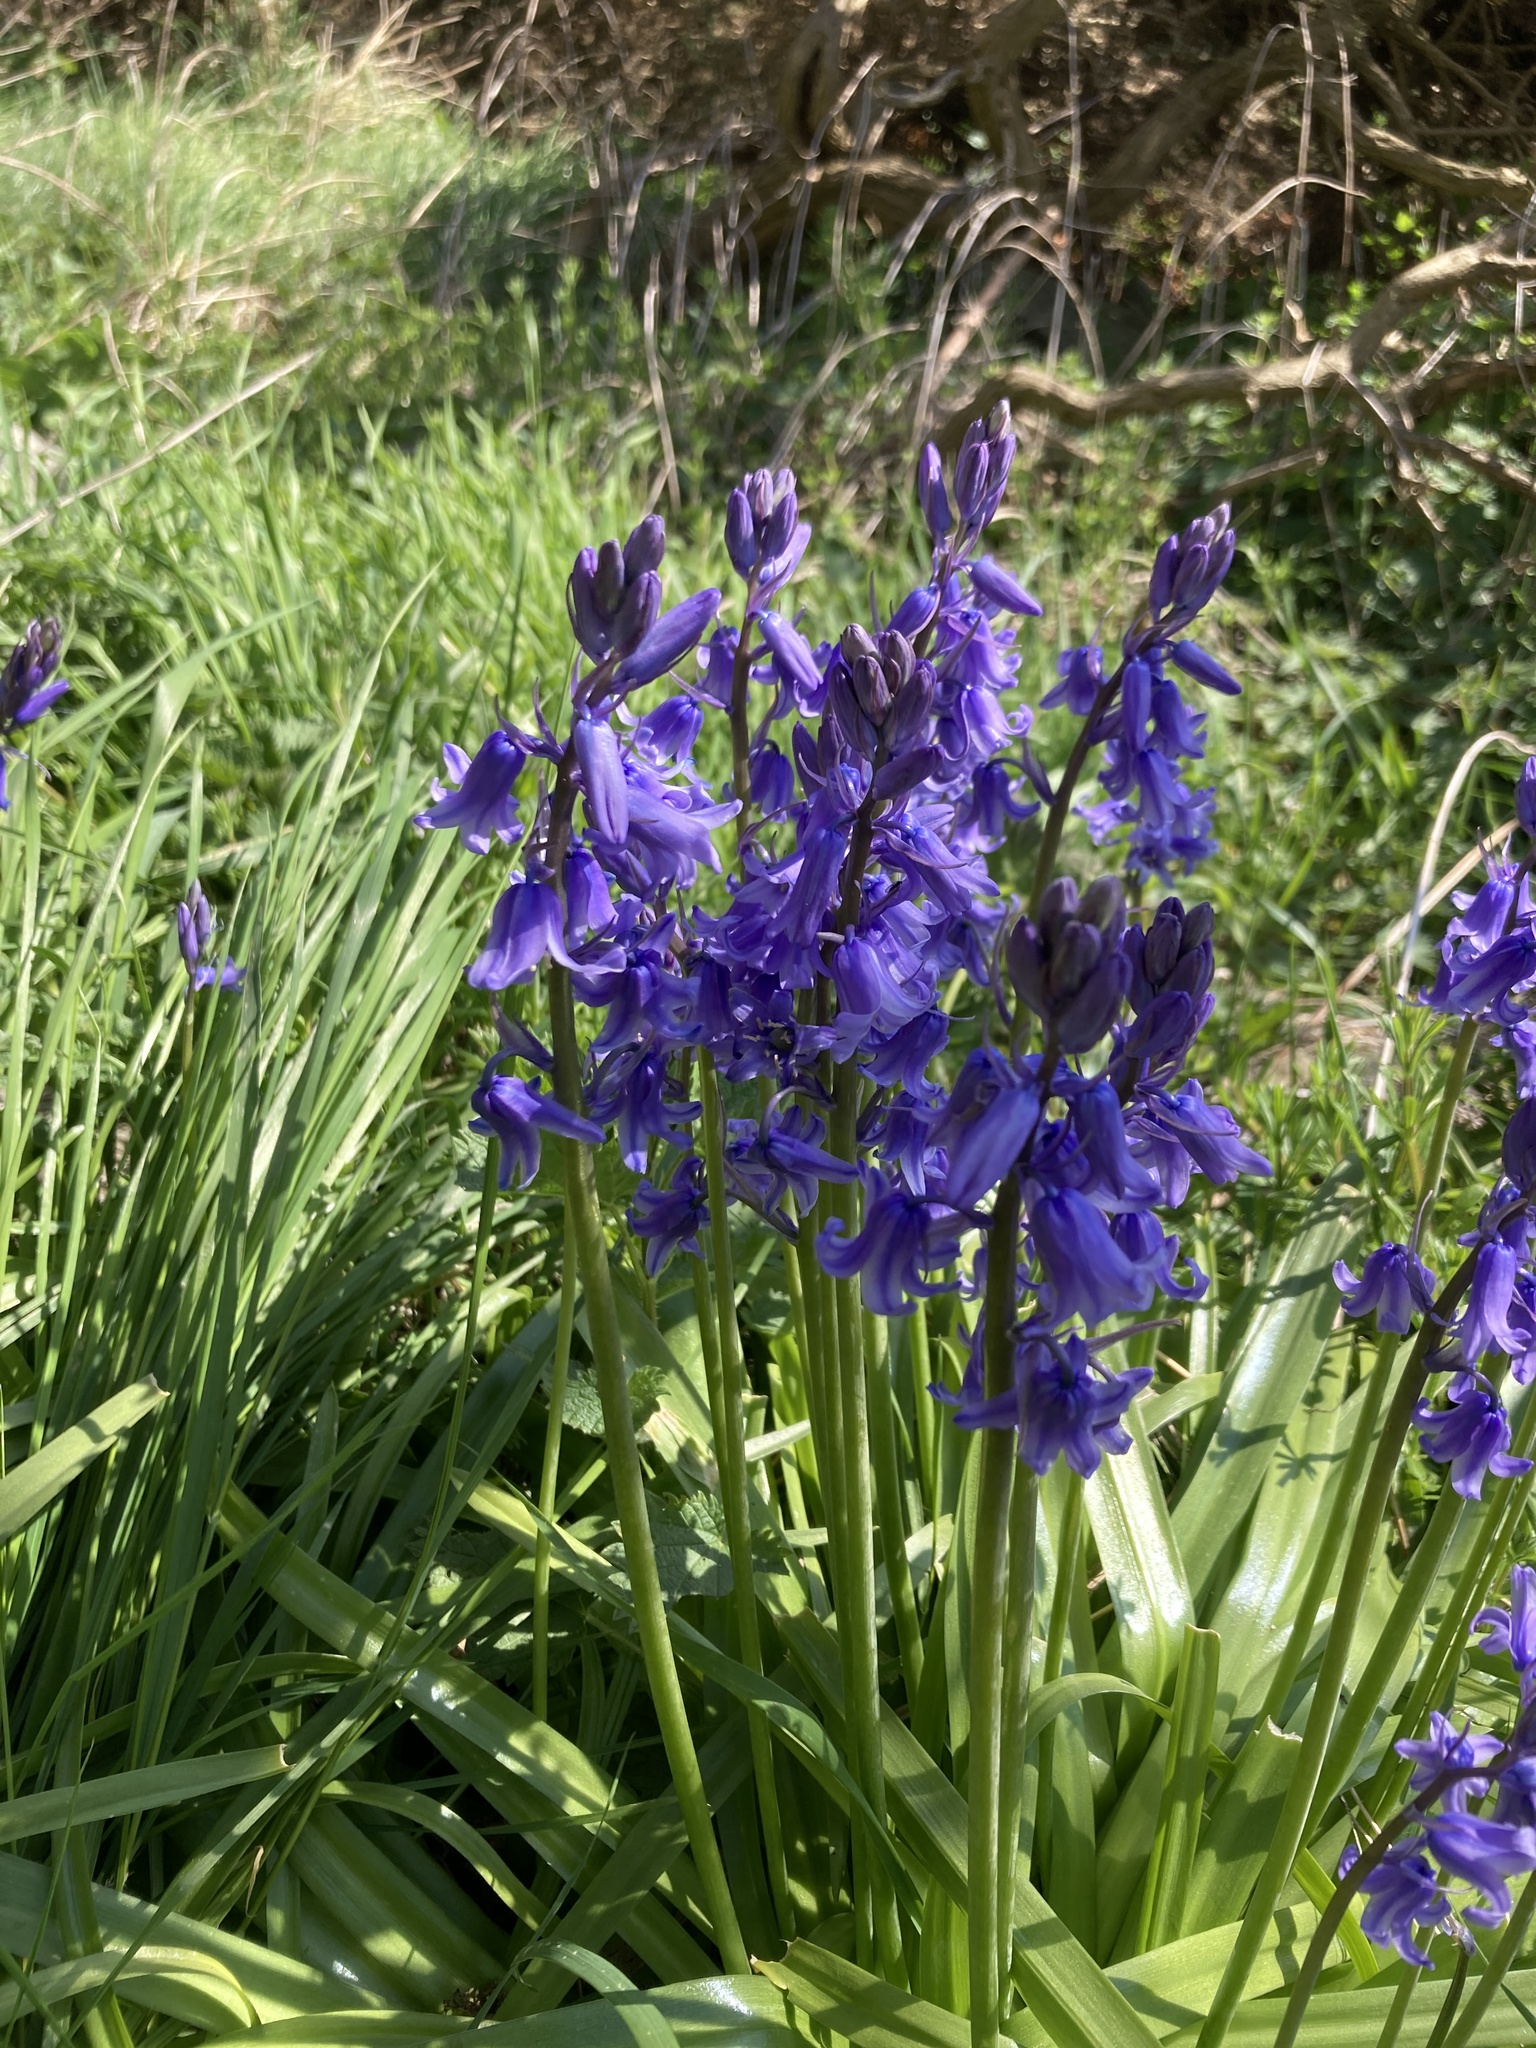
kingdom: Plantae
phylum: Tracheophyta
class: Liliopsida
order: Asparagales
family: Asparagaceae
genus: Hyacinthoides
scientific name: Hyacinthoides hispanica
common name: Spanish bluebell
